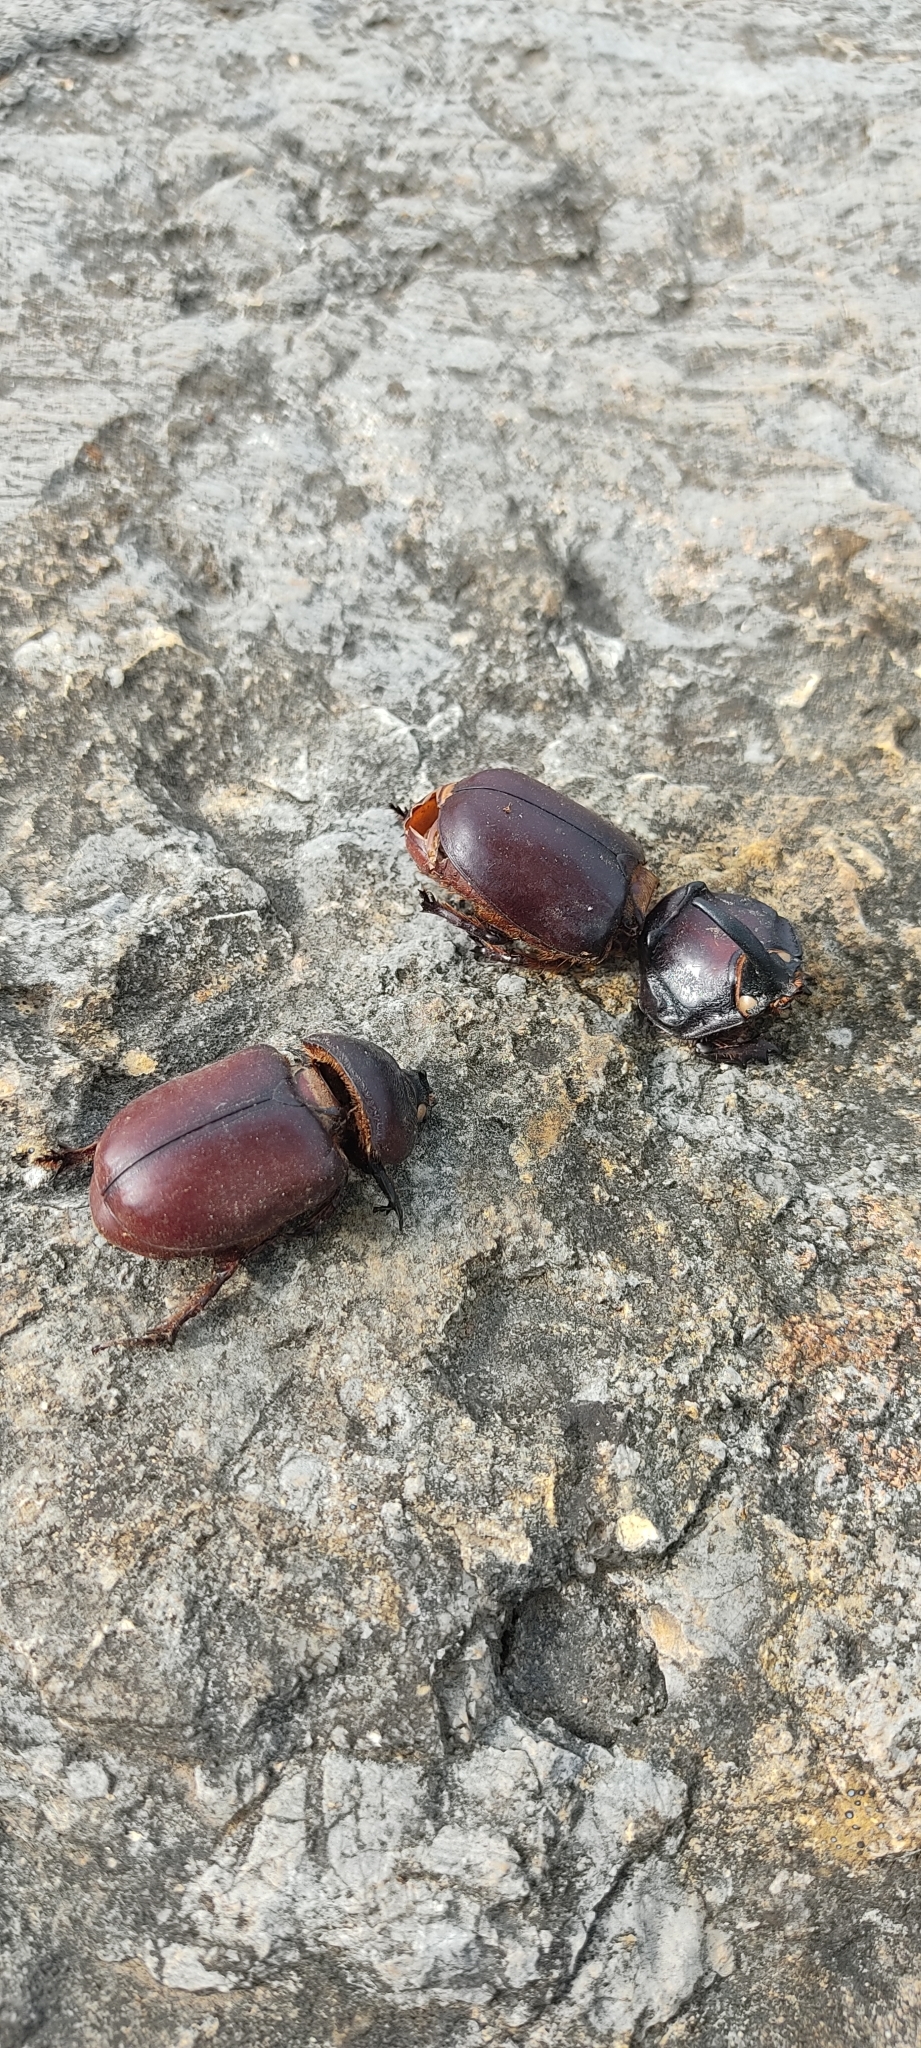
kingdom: Animalia
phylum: Arthropoda
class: Insecta
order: Coleoptera
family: Scarabaeidae
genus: Oryctes
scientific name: Oryctes nasicornis
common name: European rhinoceros beetle
